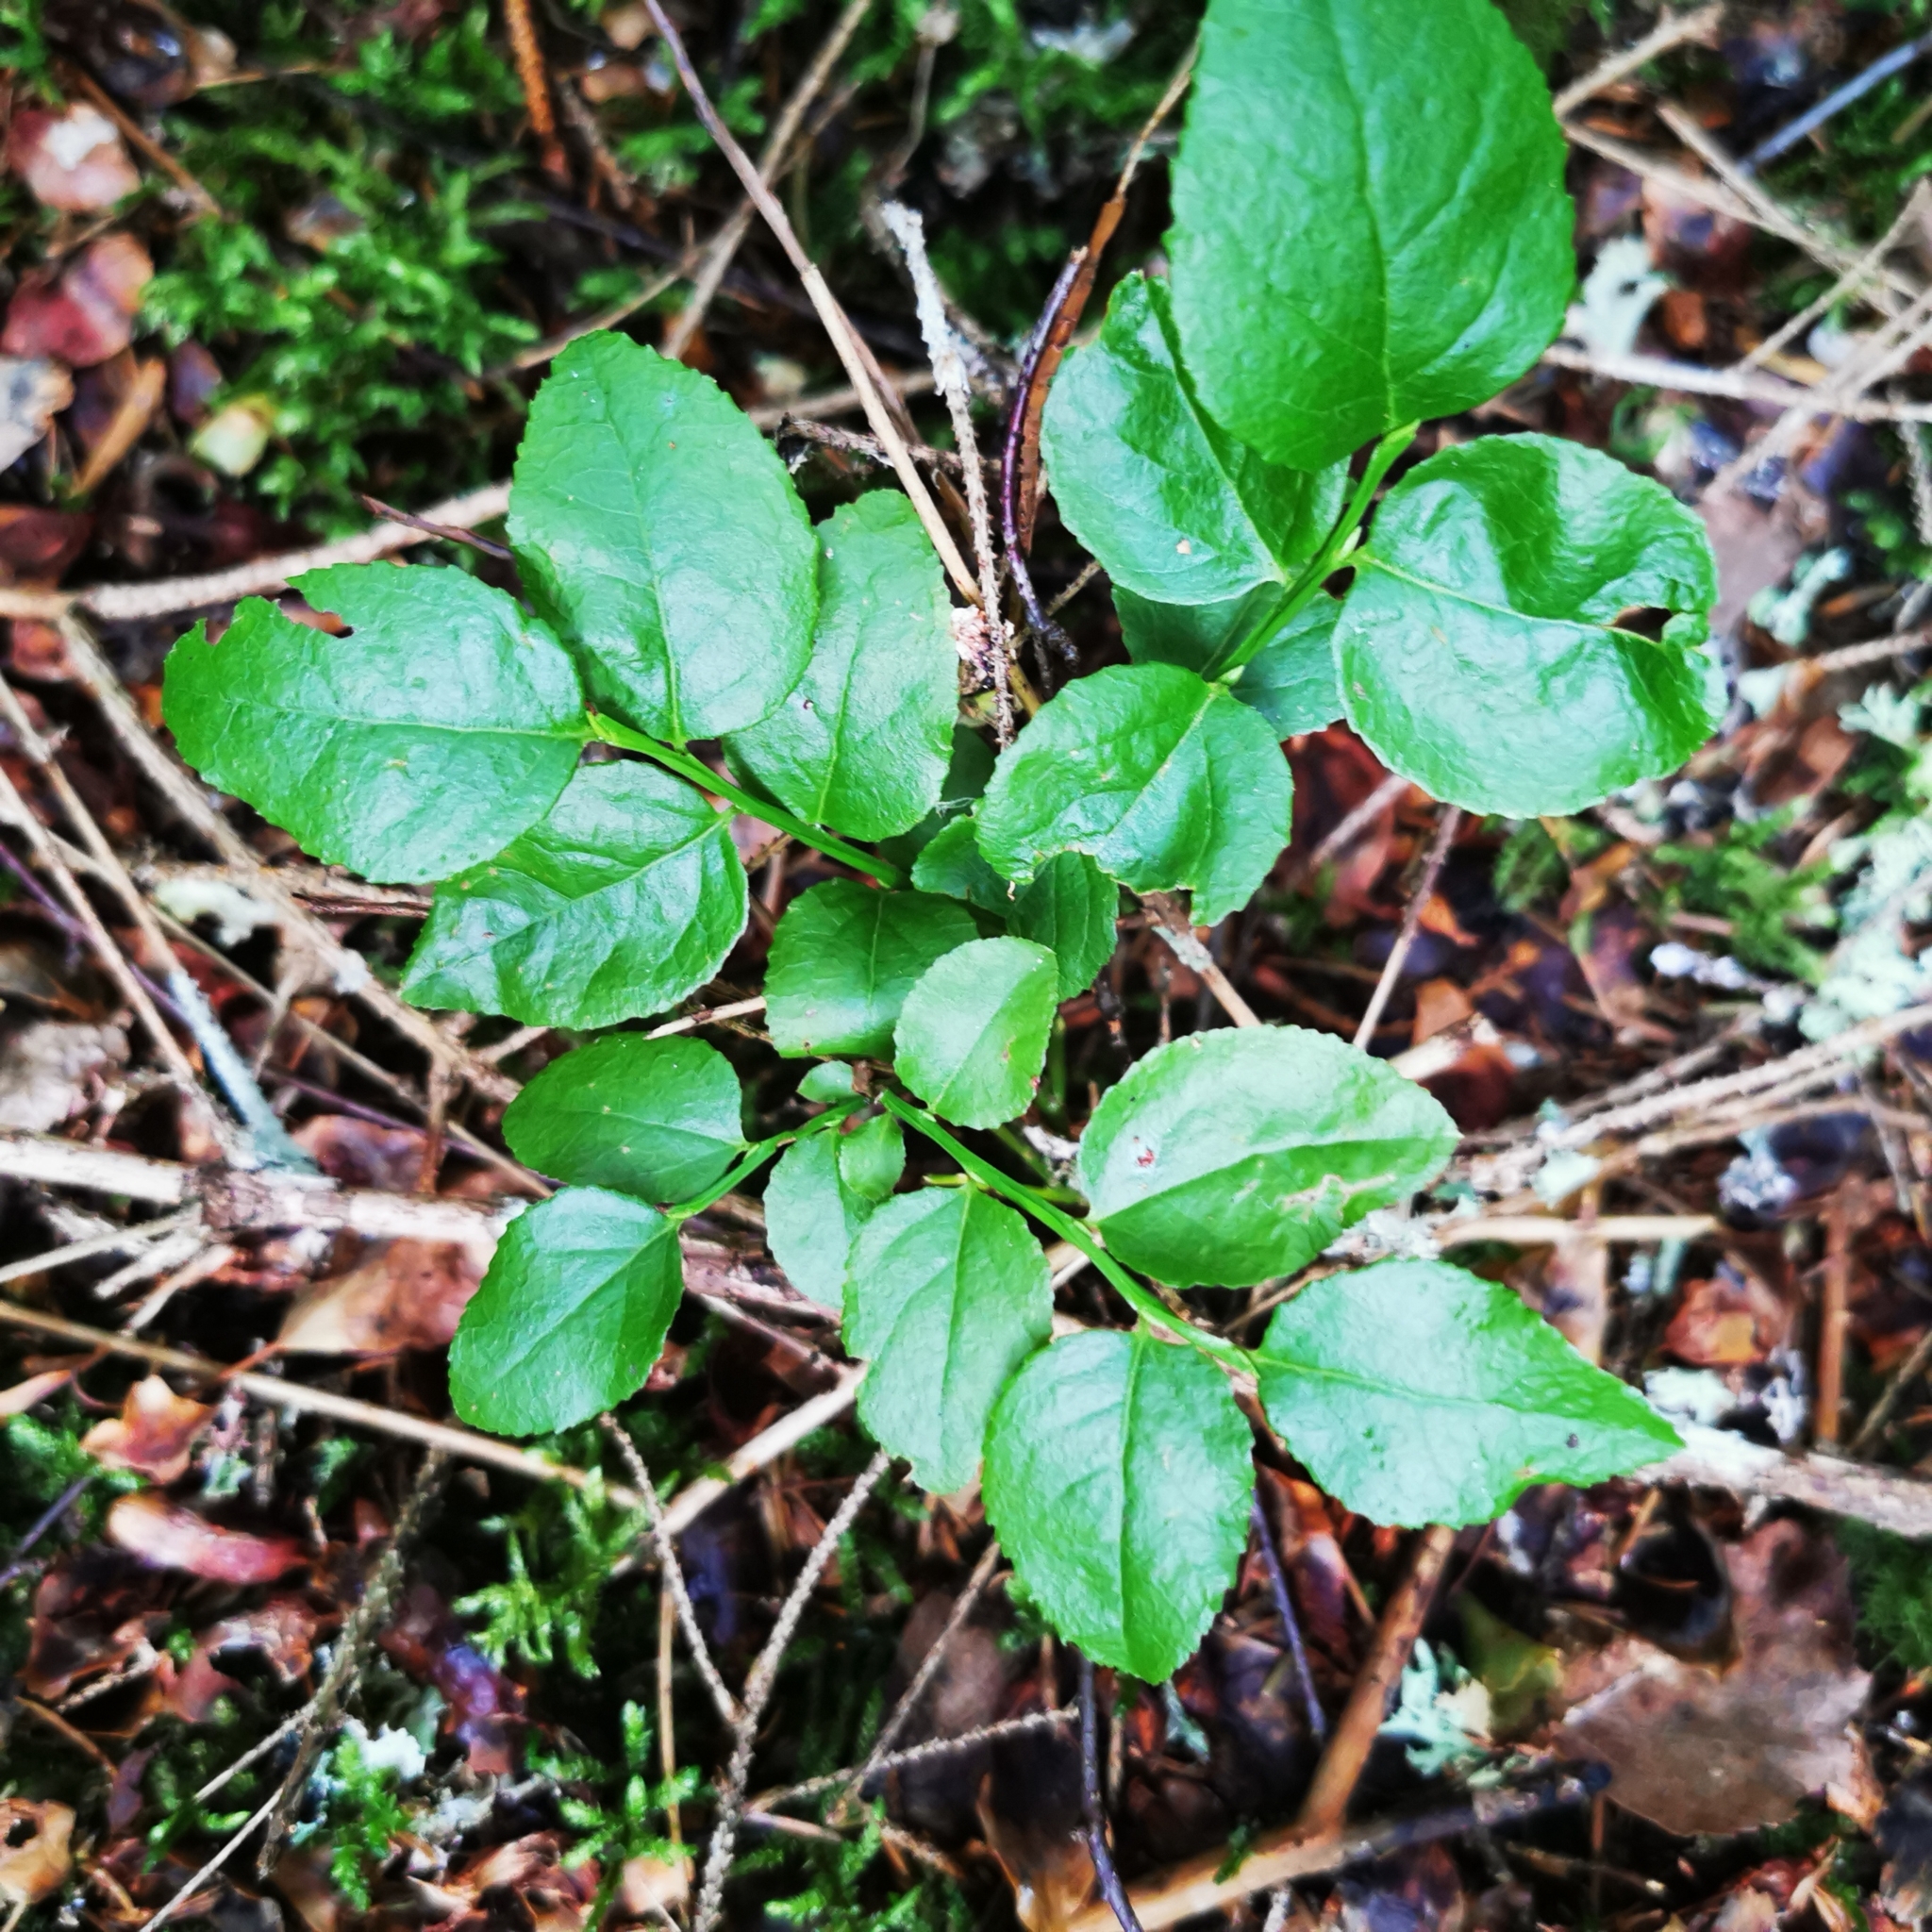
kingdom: Plantae
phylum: Tracheophyta
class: Magnoliopsida
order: Ericales
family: Ericaceae
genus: Vaccinium
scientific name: Vaccinium myrtillus
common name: Bilberry
